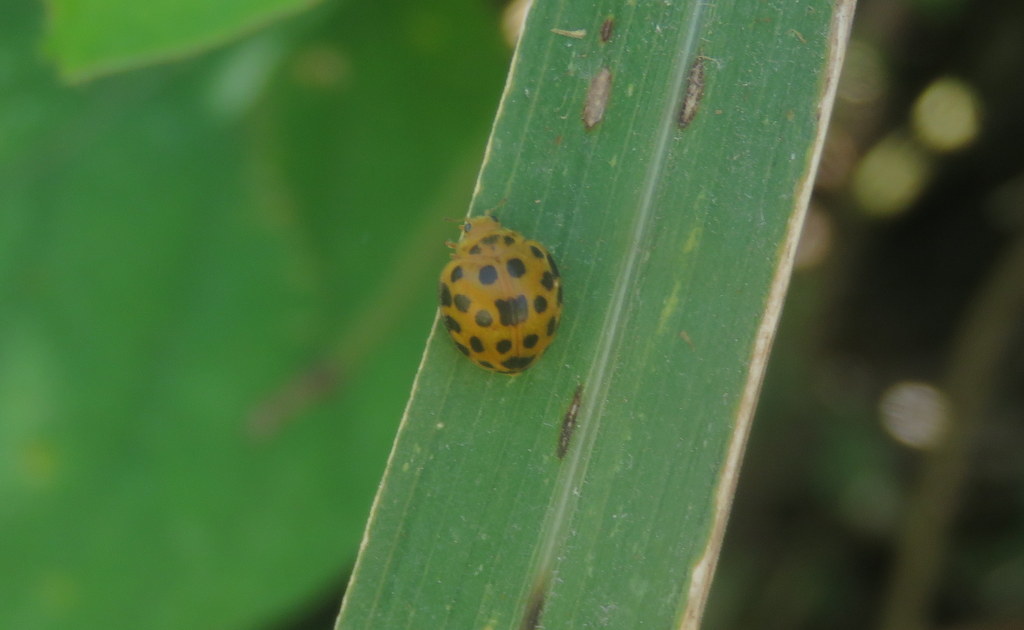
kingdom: Animalia
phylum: Arthropoda
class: Insecta
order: Coleoptera
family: Coccinellidae
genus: Henosepilachna
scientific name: Henosepilachna vigintioctopunctata
